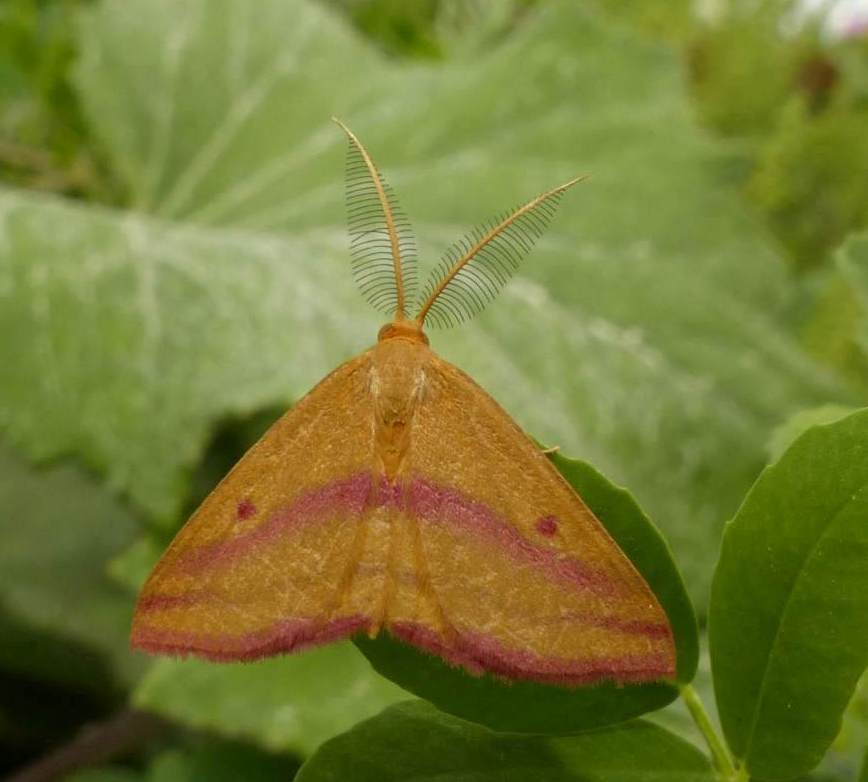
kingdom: Animalia
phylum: Arthropoda
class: Insecta
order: Lepidoptera
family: Geometridae
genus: Haematopis
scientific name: Haematopis grataria
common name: Chickweed geometer
